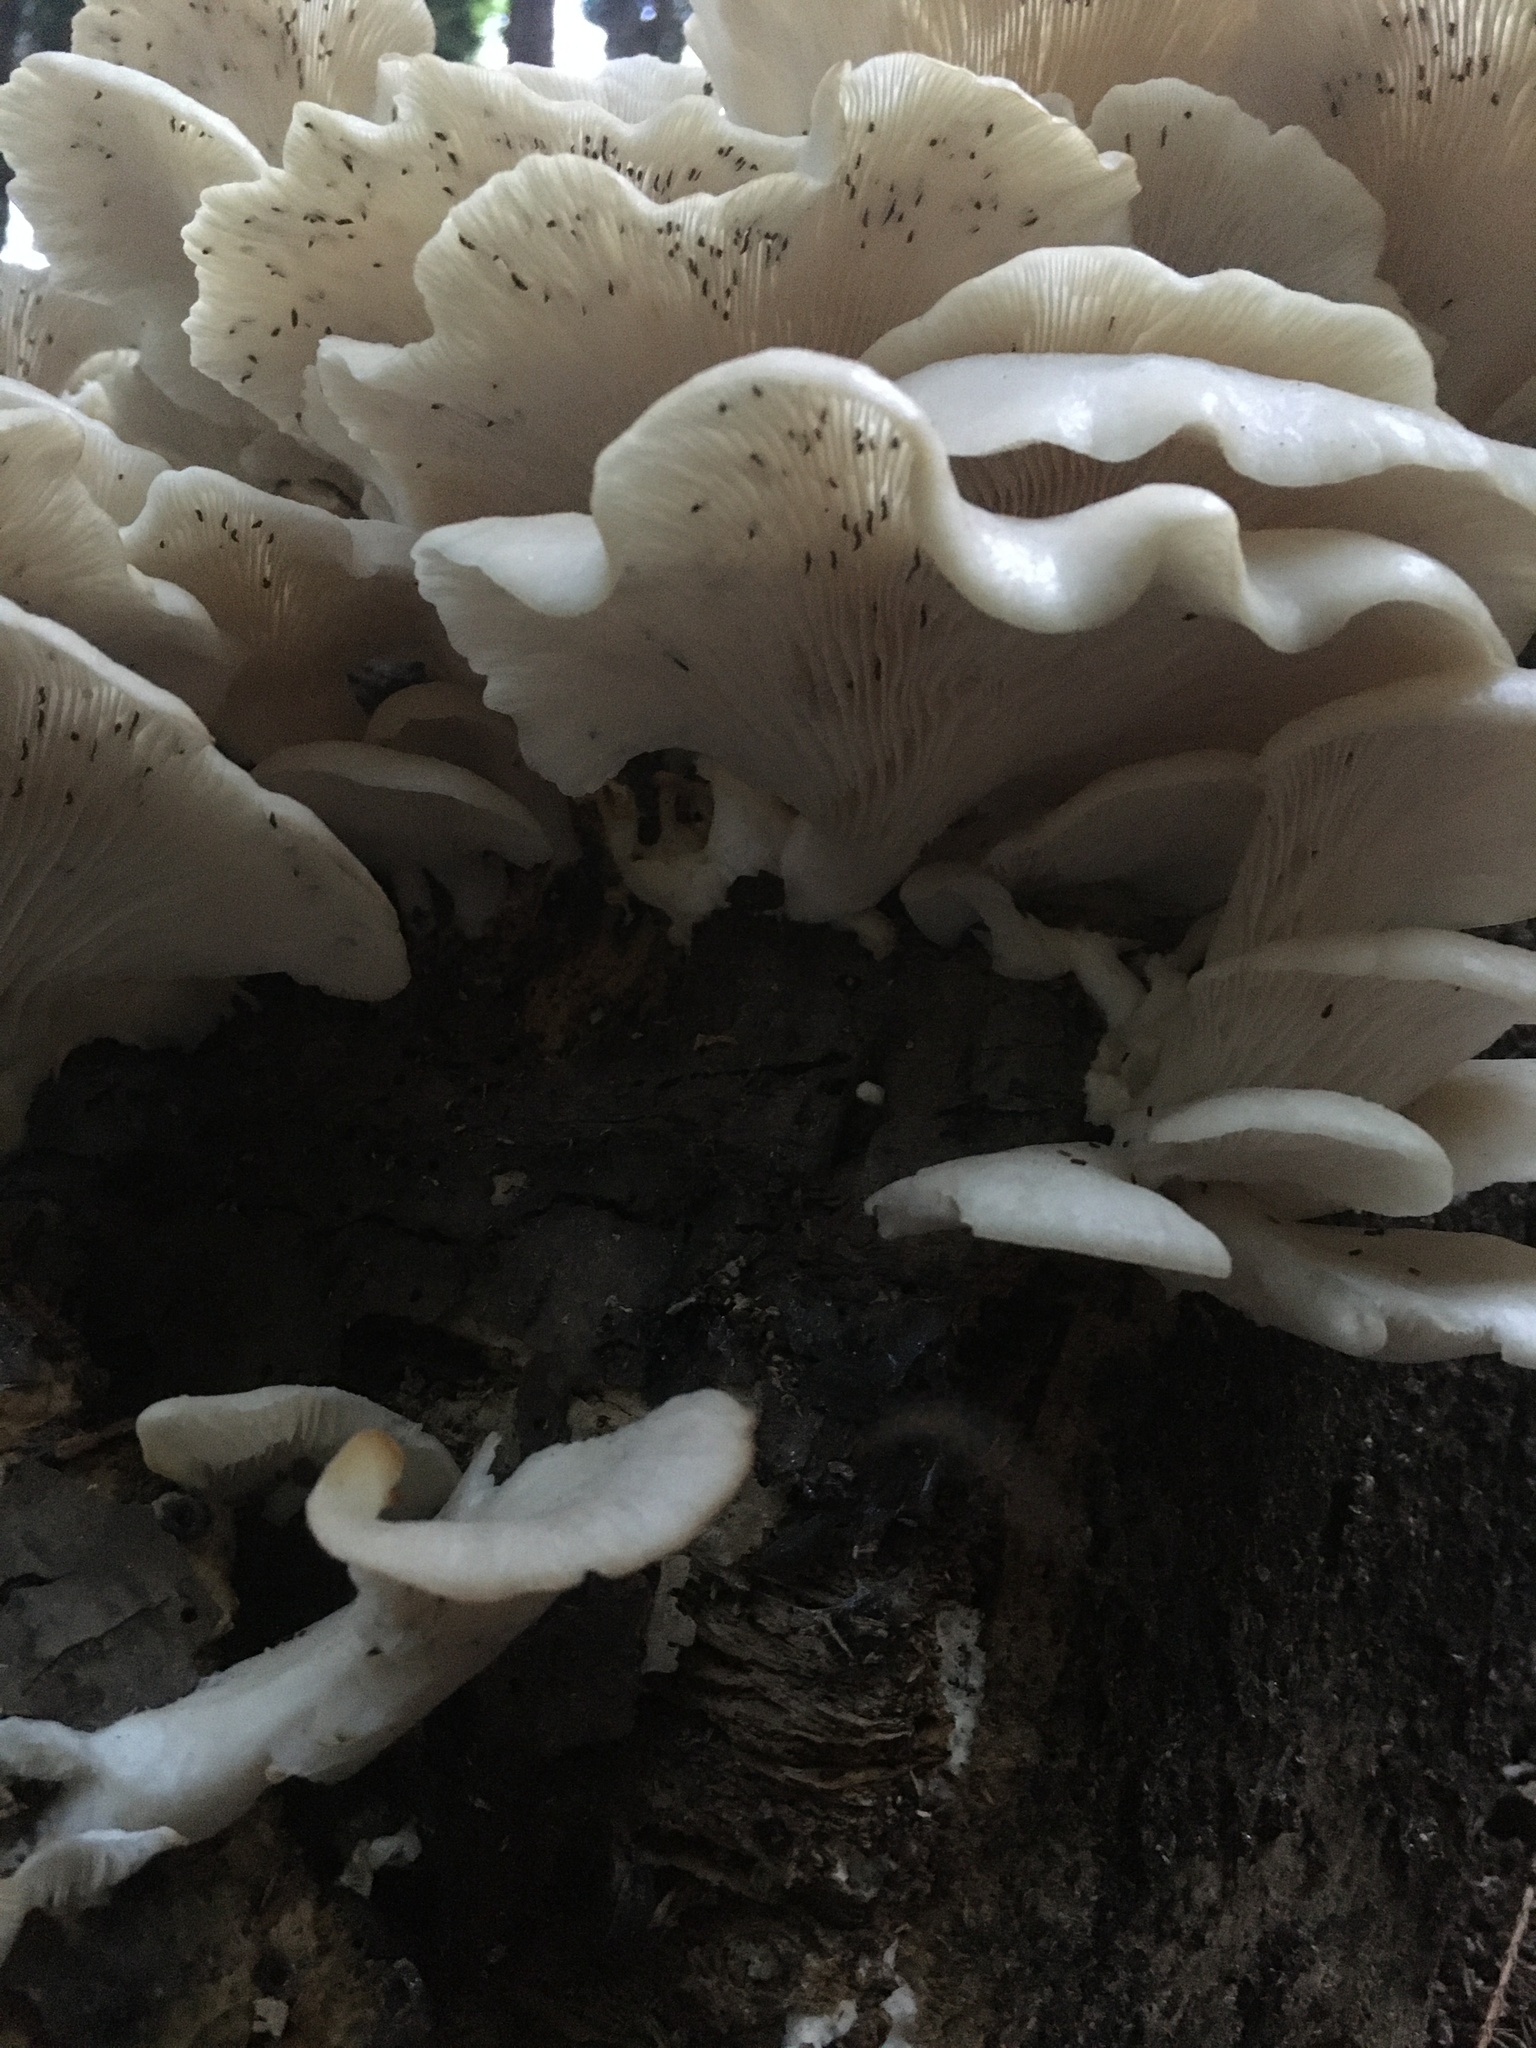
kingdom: Fungi
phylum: Basidiomycota
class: Agaricomycetes
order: Agaricales
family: Pleurotaceae
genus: Pleurotus
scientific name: Pleurotus pulmonarius
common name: Pale oyster
